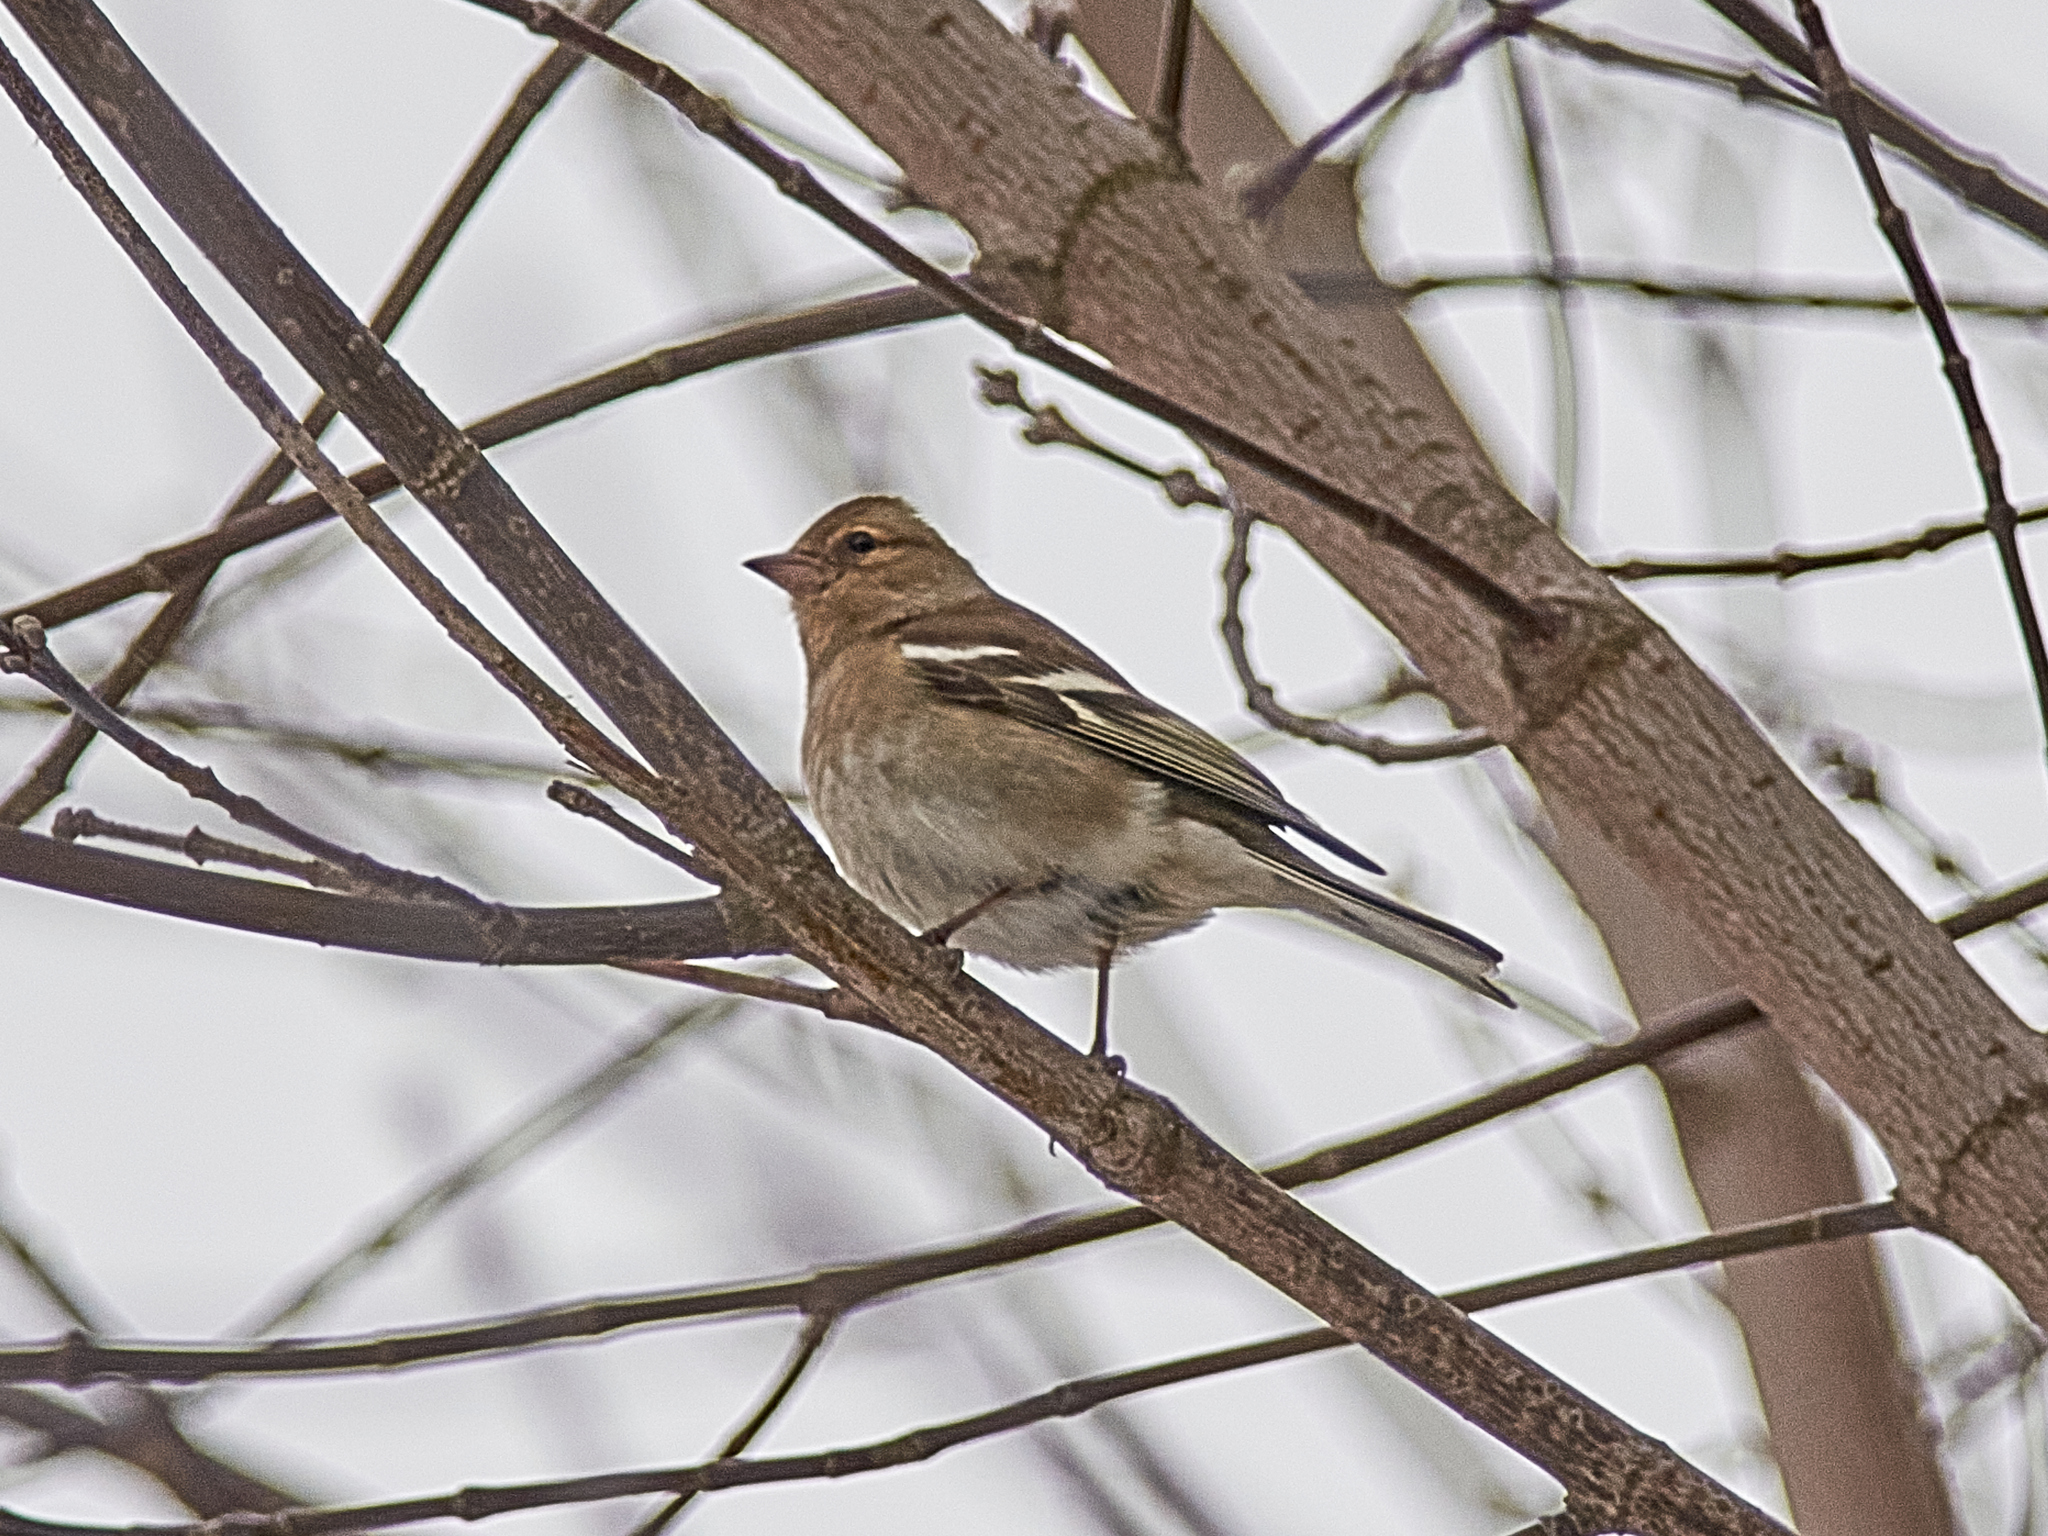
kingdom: Animalia
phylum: Chordata
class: Aves
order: Passeriformes
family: Fringillidae
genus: Fringilla
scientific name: Fringilla coelebs
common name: Common chaffinch
